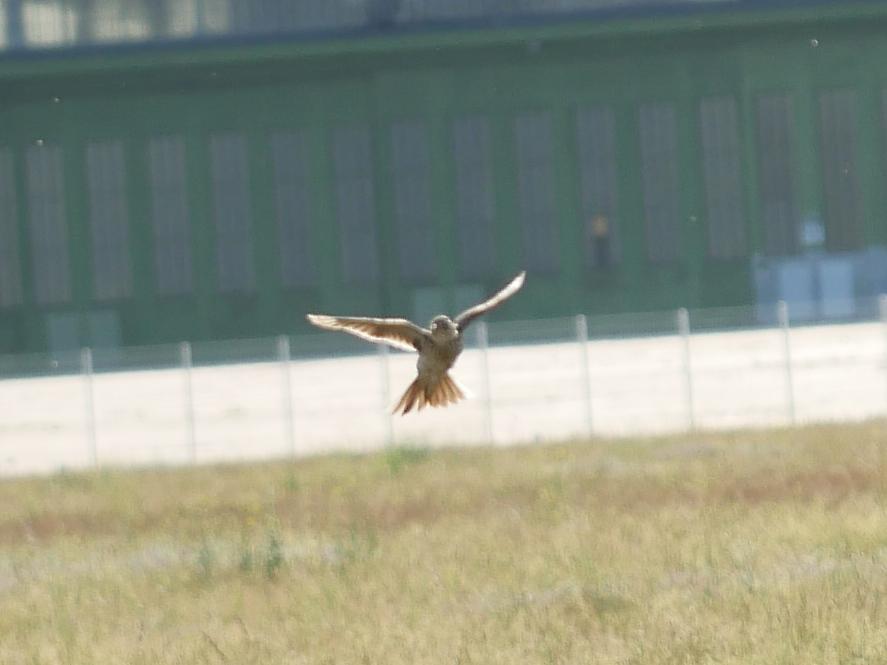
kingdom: Animalia
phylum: Chordata
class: Aves
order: Passeriformes
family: Alaudidae
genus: Alauda
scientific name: Alauda arvensis
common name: Eurasian skylark
